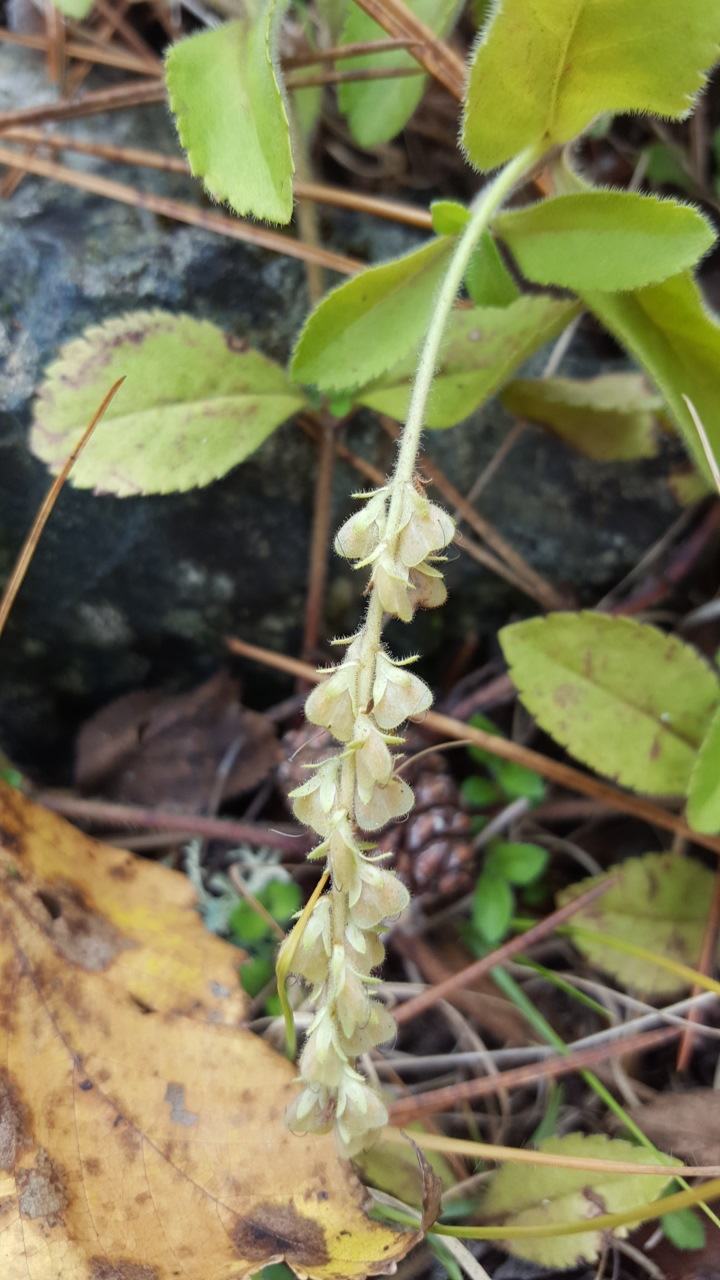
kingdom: Plantae
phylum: Tracheophyta
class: Magnoliopsida
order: Lamiales
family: Plantaginaceae
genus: Veronica
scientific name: Veronica officinalis
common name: Common speedwell
